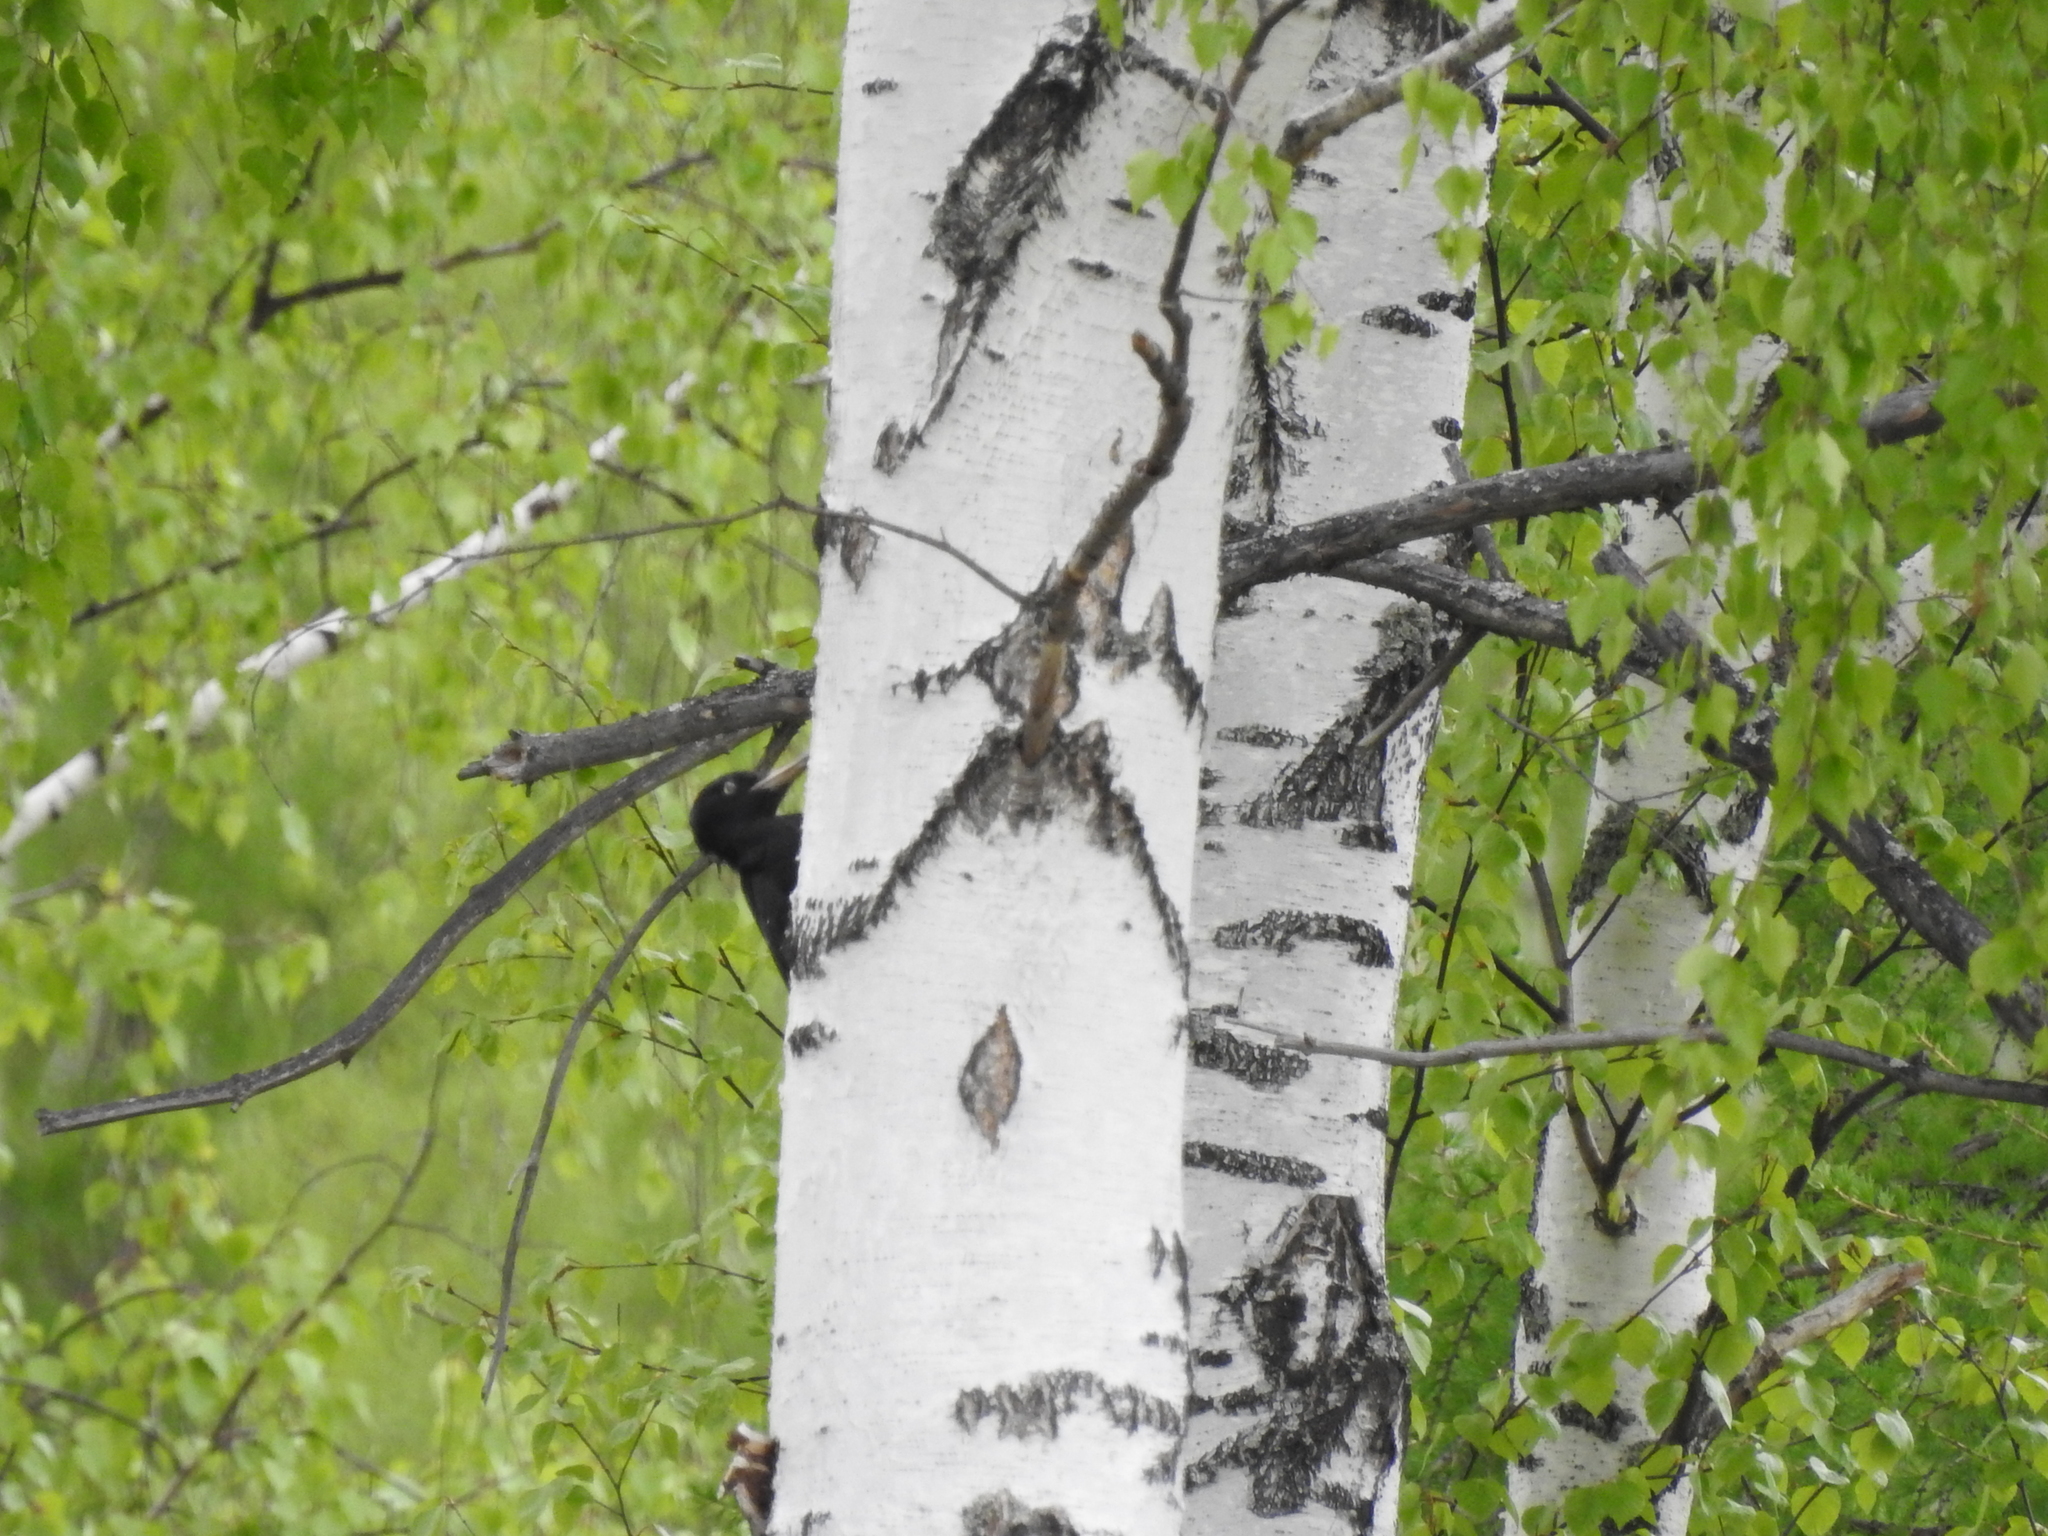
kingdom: Animalia
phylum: Chordata
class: Aves
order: Piciformes
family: Picidae
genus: Dryocopus
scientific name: Dryocopus martius
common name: Black woodpecker
